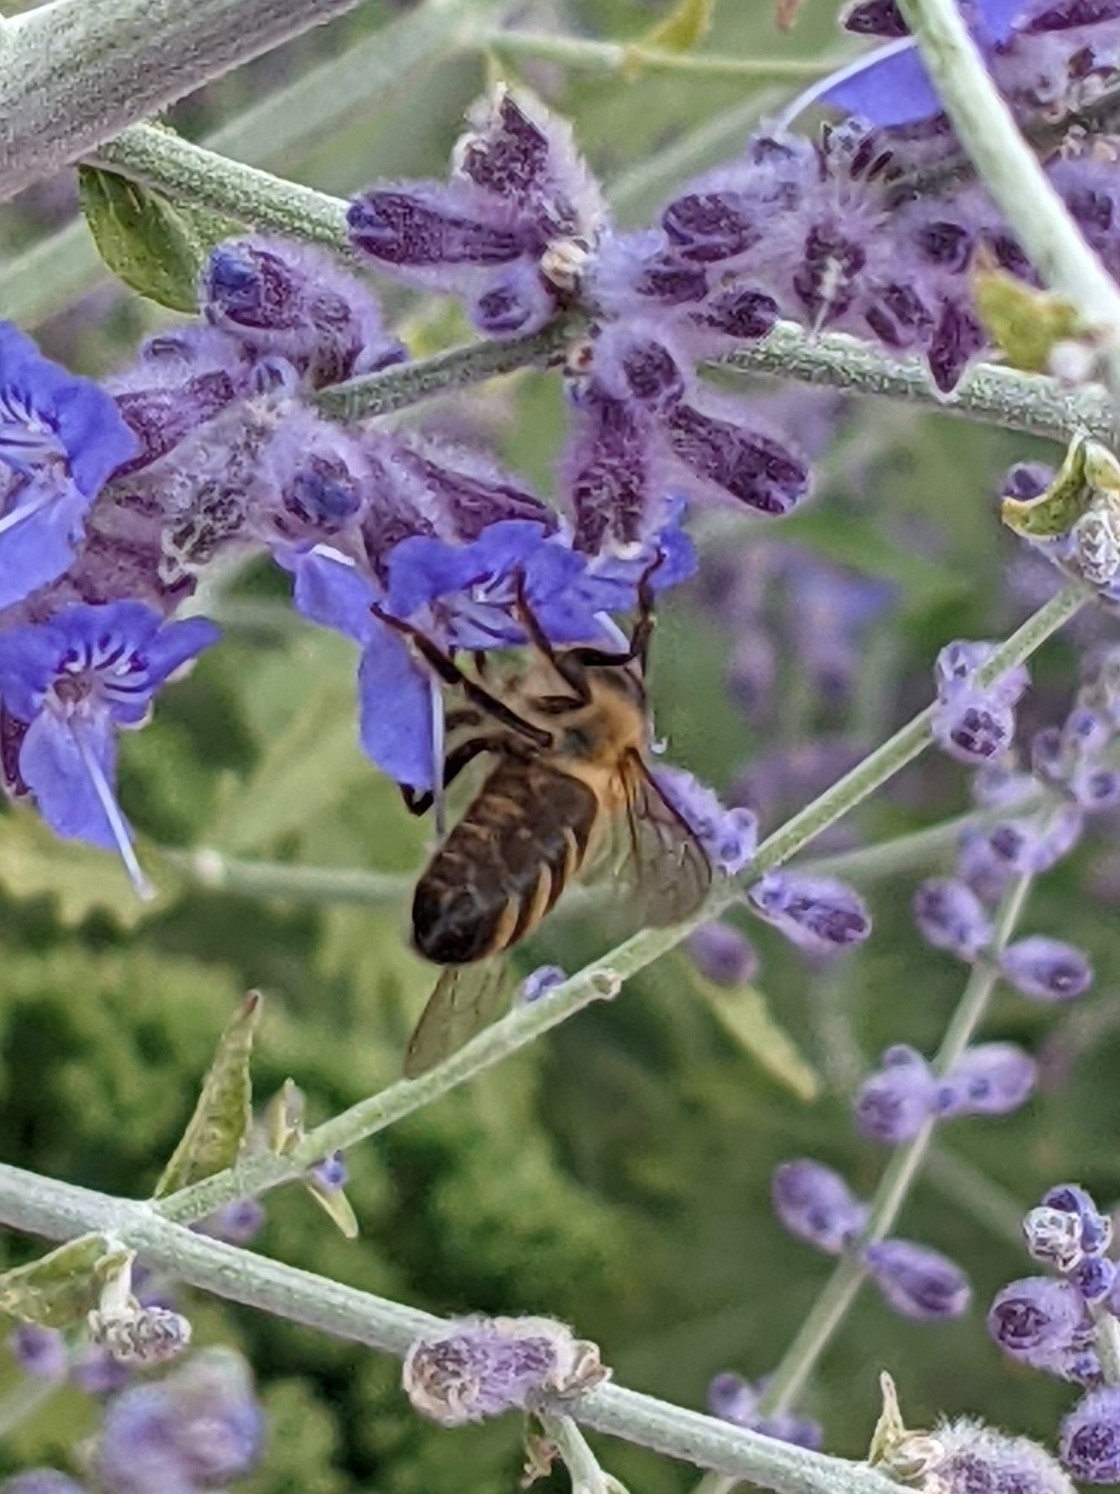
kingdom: Animalia
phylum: Arthropoda
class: Insecta
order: Hymenoptera
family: Apidae
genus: Apis
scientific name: Apis mellifera
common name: Honey bee
